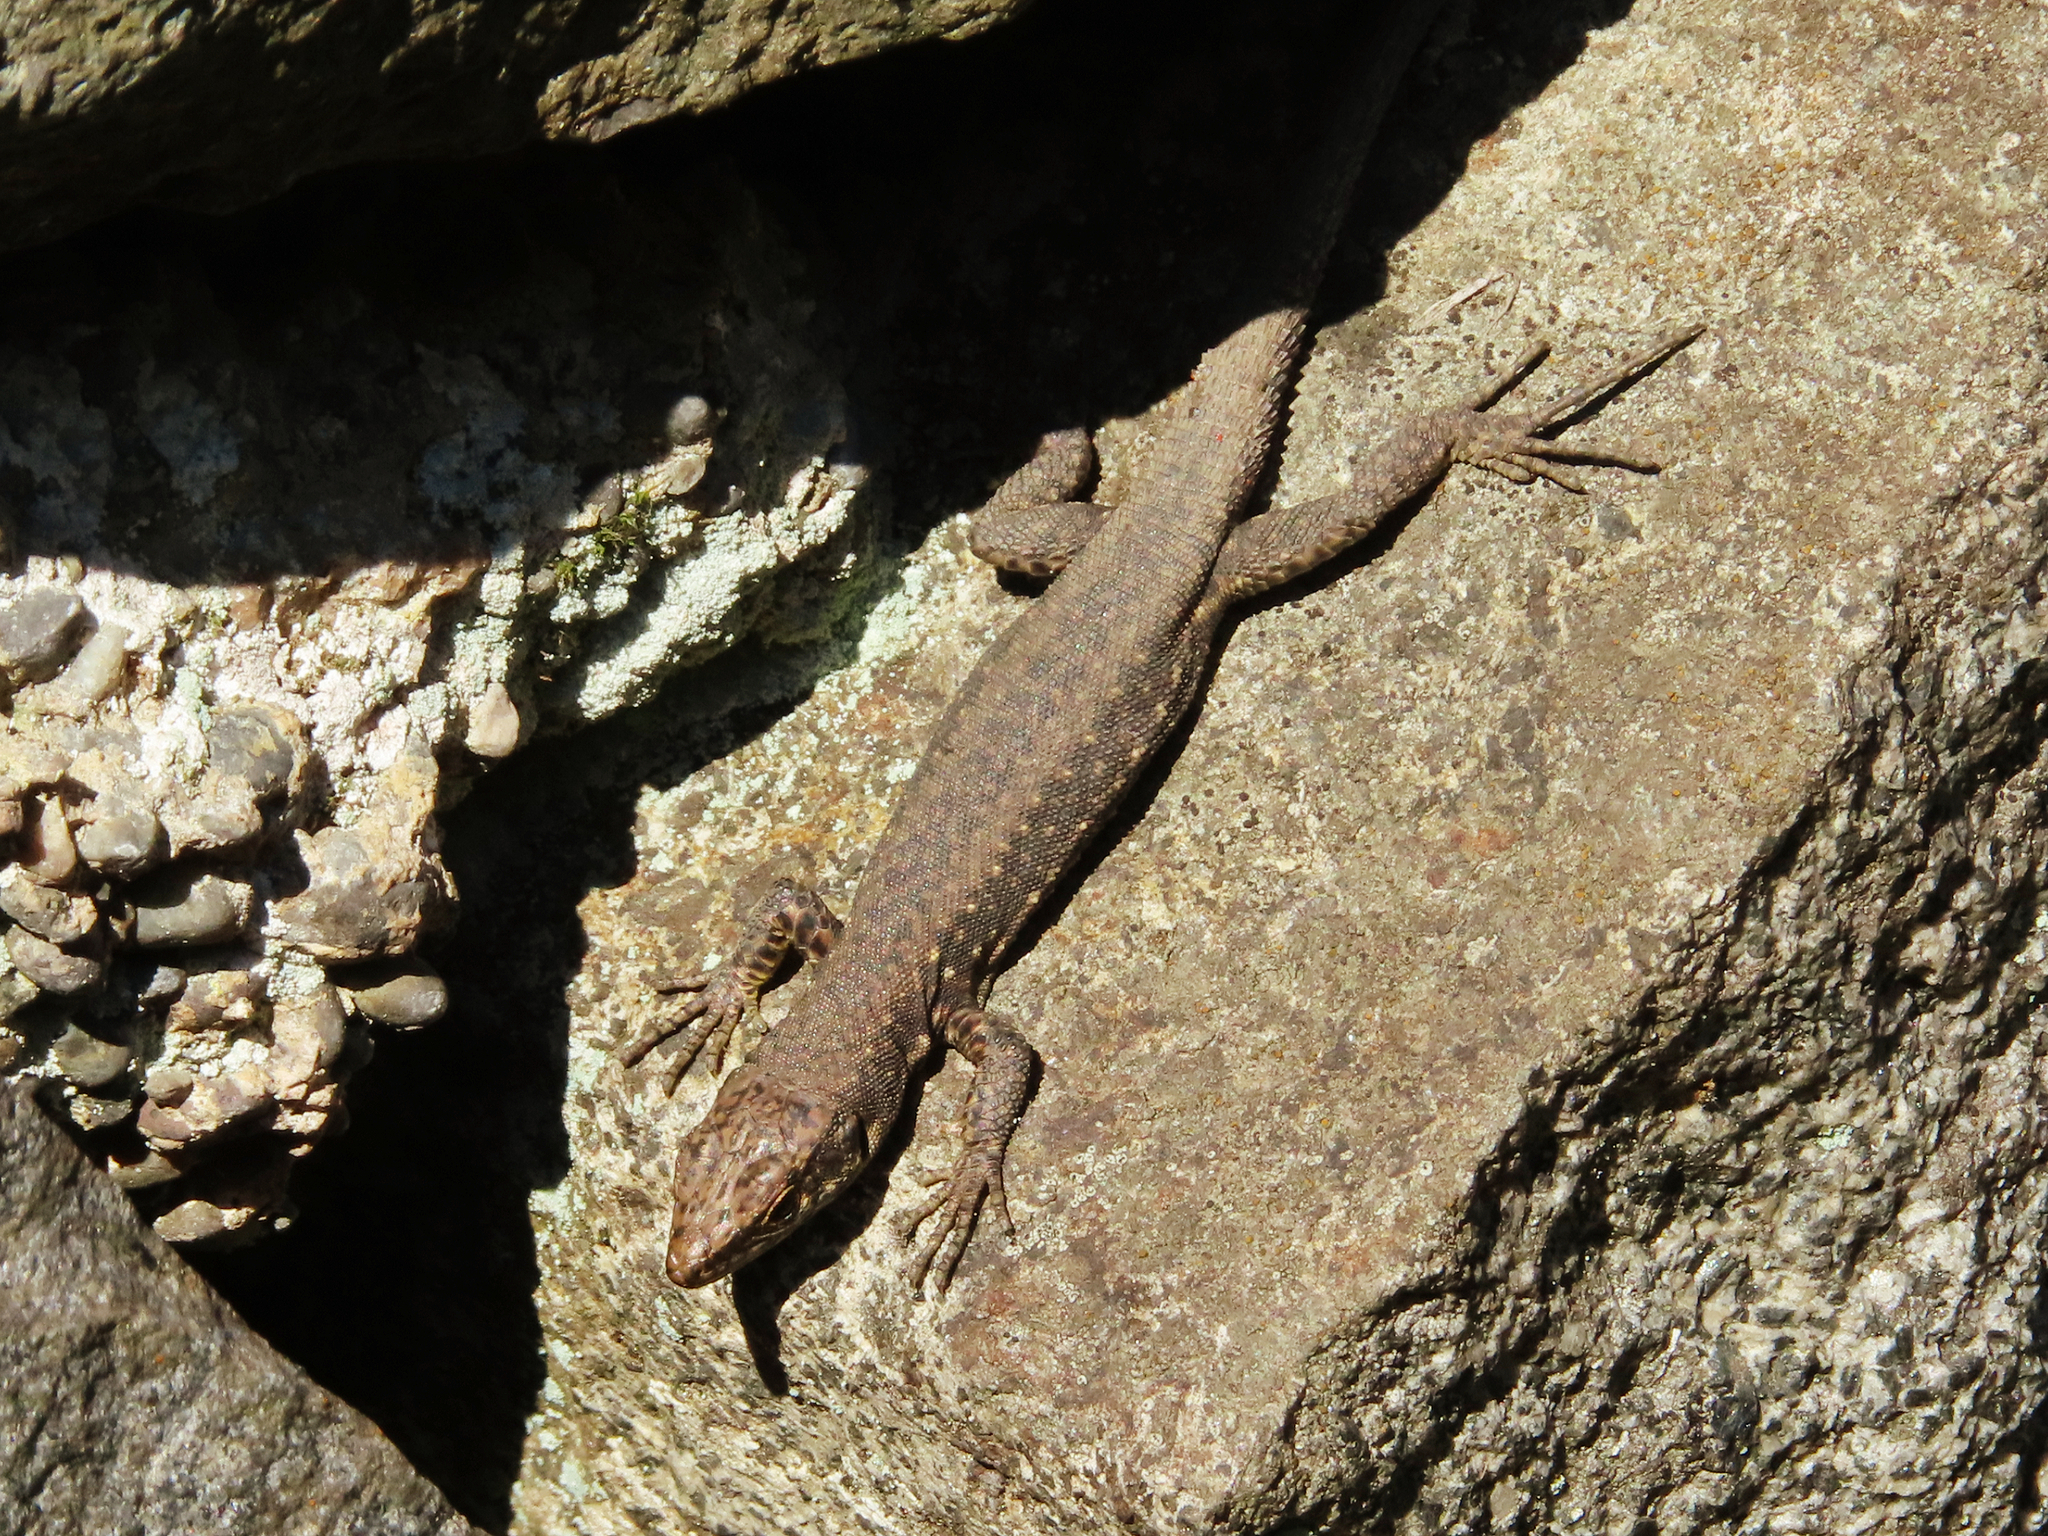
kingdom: Animalia
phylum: Chordata
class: Squamata
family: Lacertidae
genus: Darevskia
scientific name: Darevskia rudis
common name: Spiny-tailed lizard
